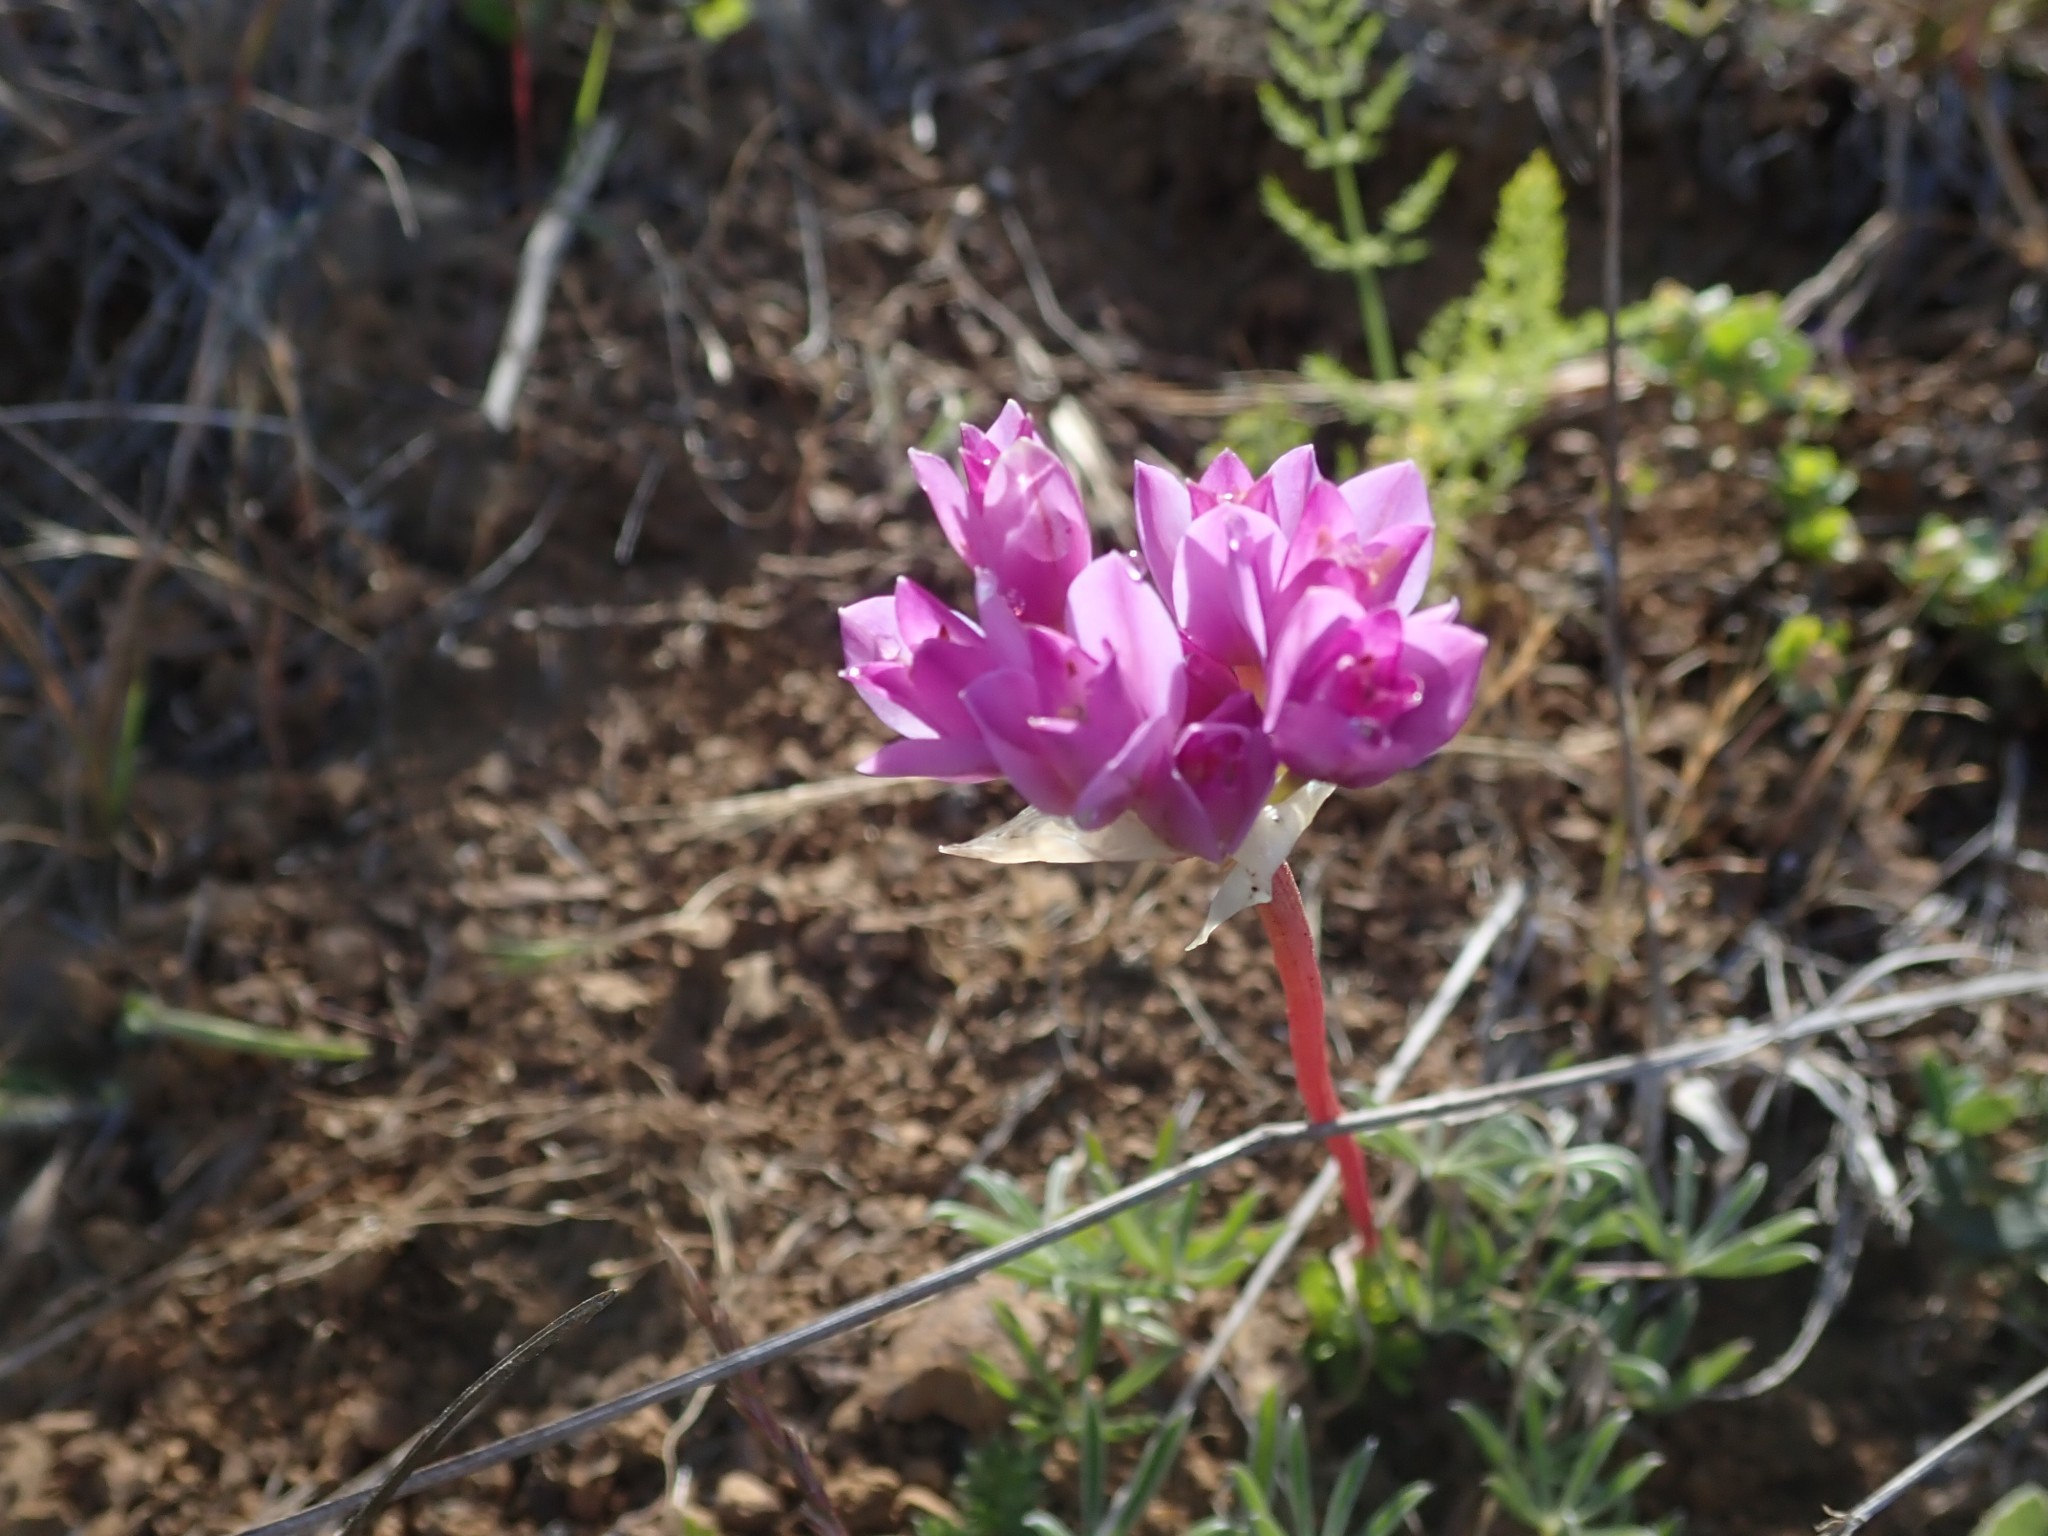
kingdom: Plantae
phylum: Tracheophyta
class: Liliopsida
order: Asparagales
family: Amaryllidaceae
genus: Allium
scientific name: Allium dichlamydeum
